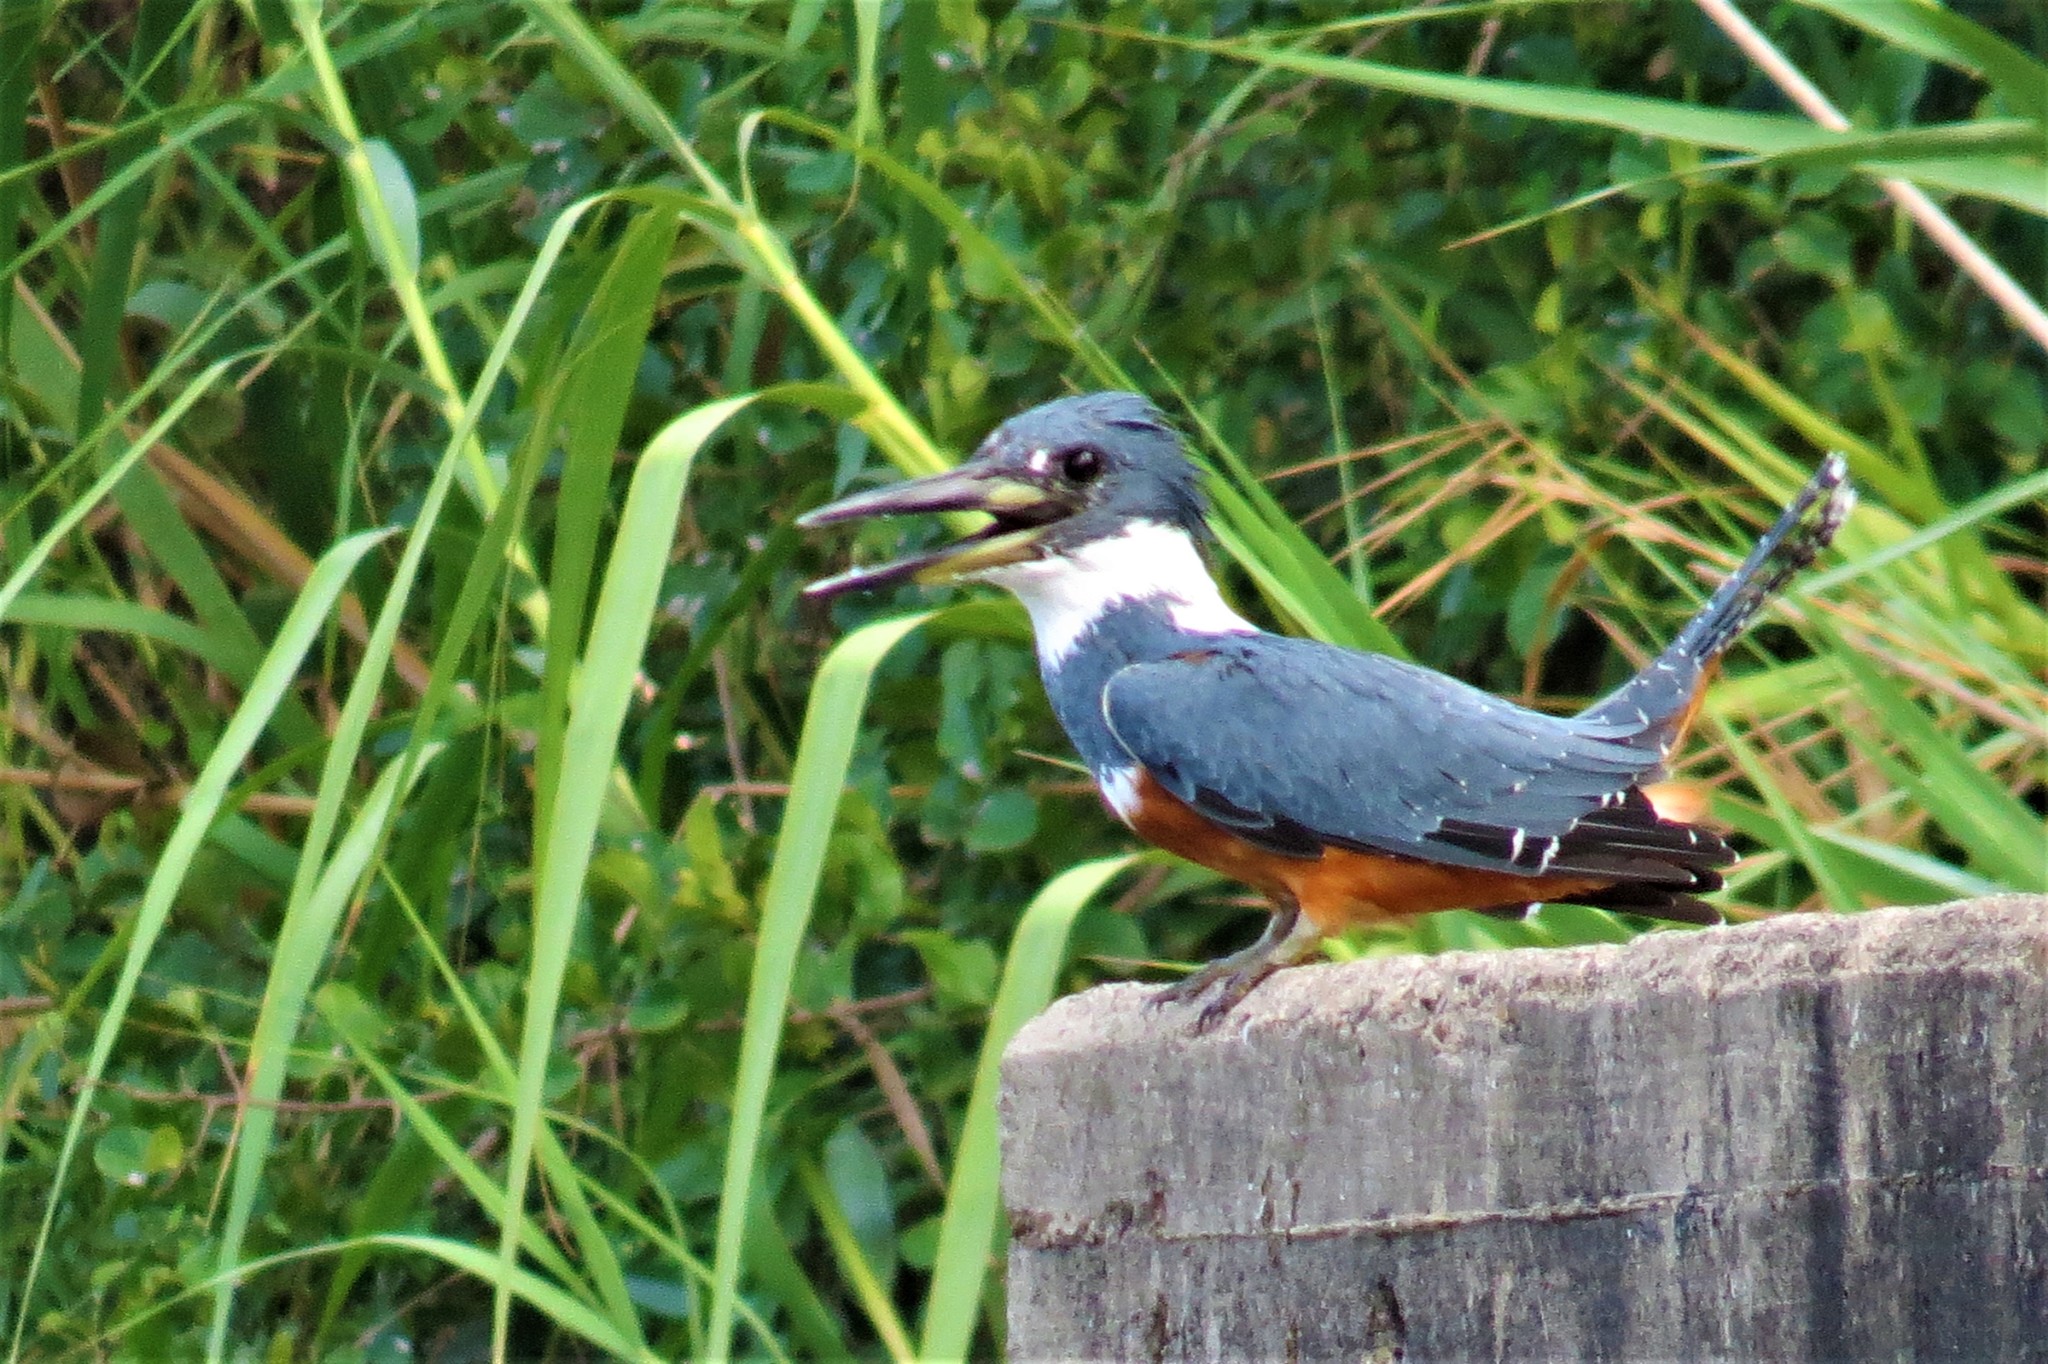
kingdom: Animalia
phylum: Chordata
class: Aves
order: Coraciiformes
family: Alcedinidae
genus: Megaceryle
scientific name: Megaceryle torquata
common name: Ringed kingfisher
